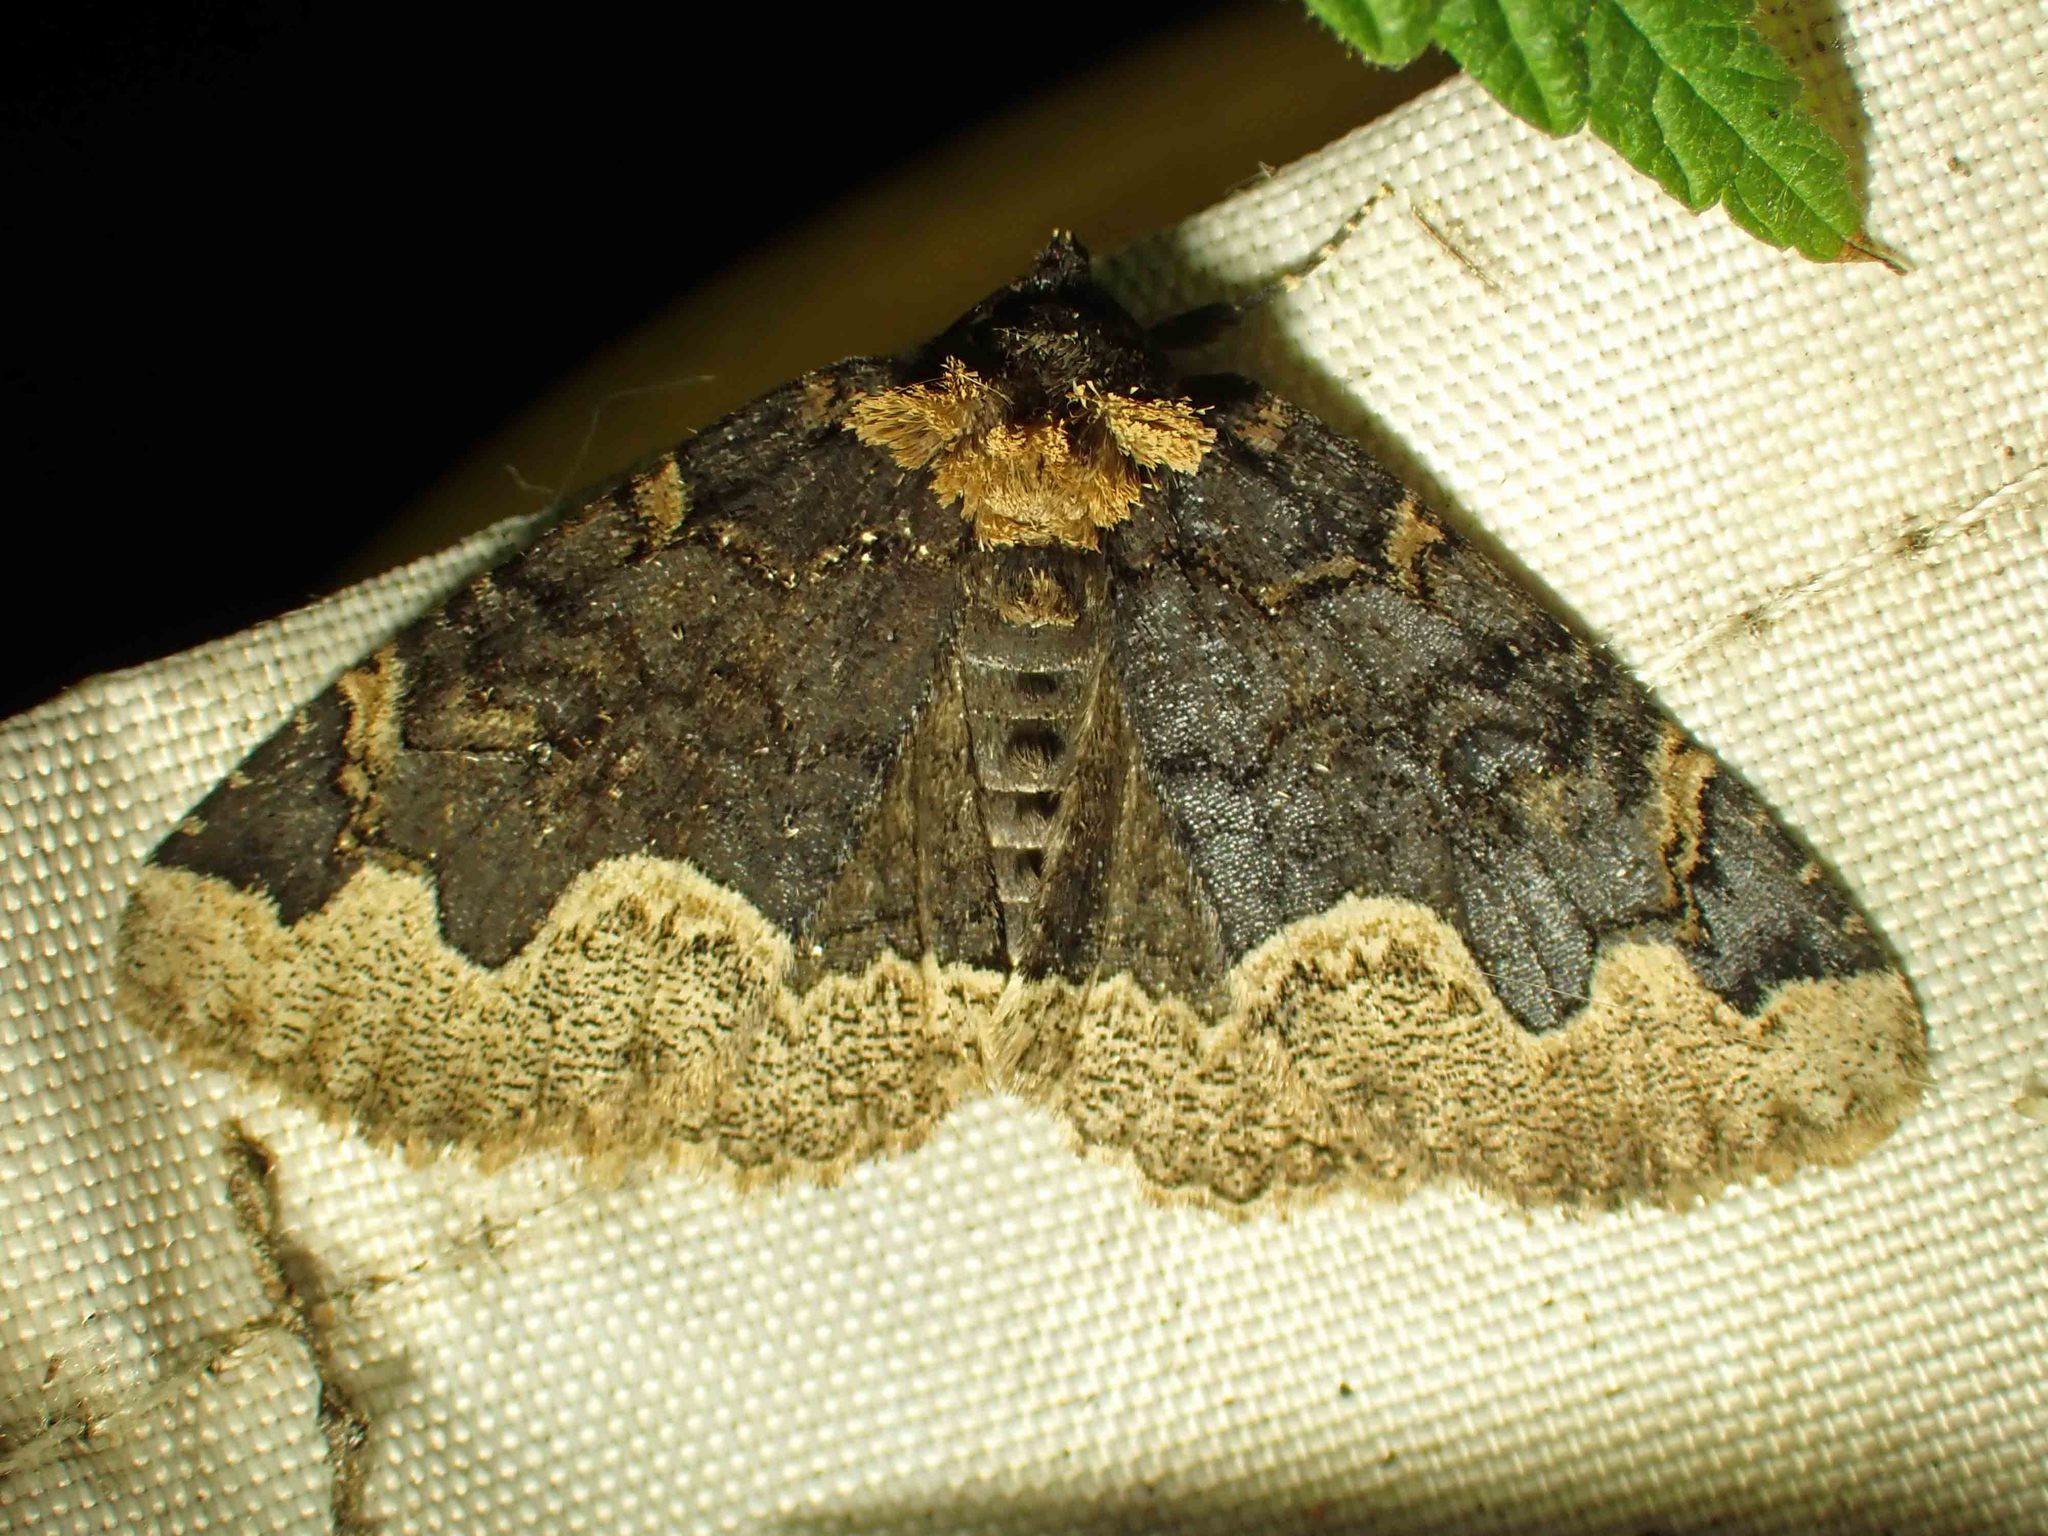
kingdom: Animalia
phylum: Arthropoda
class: Insecta
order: Lepidoptera
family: Erebidae
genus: Zale
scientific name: Zale horrida
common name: Horrid zale moth
